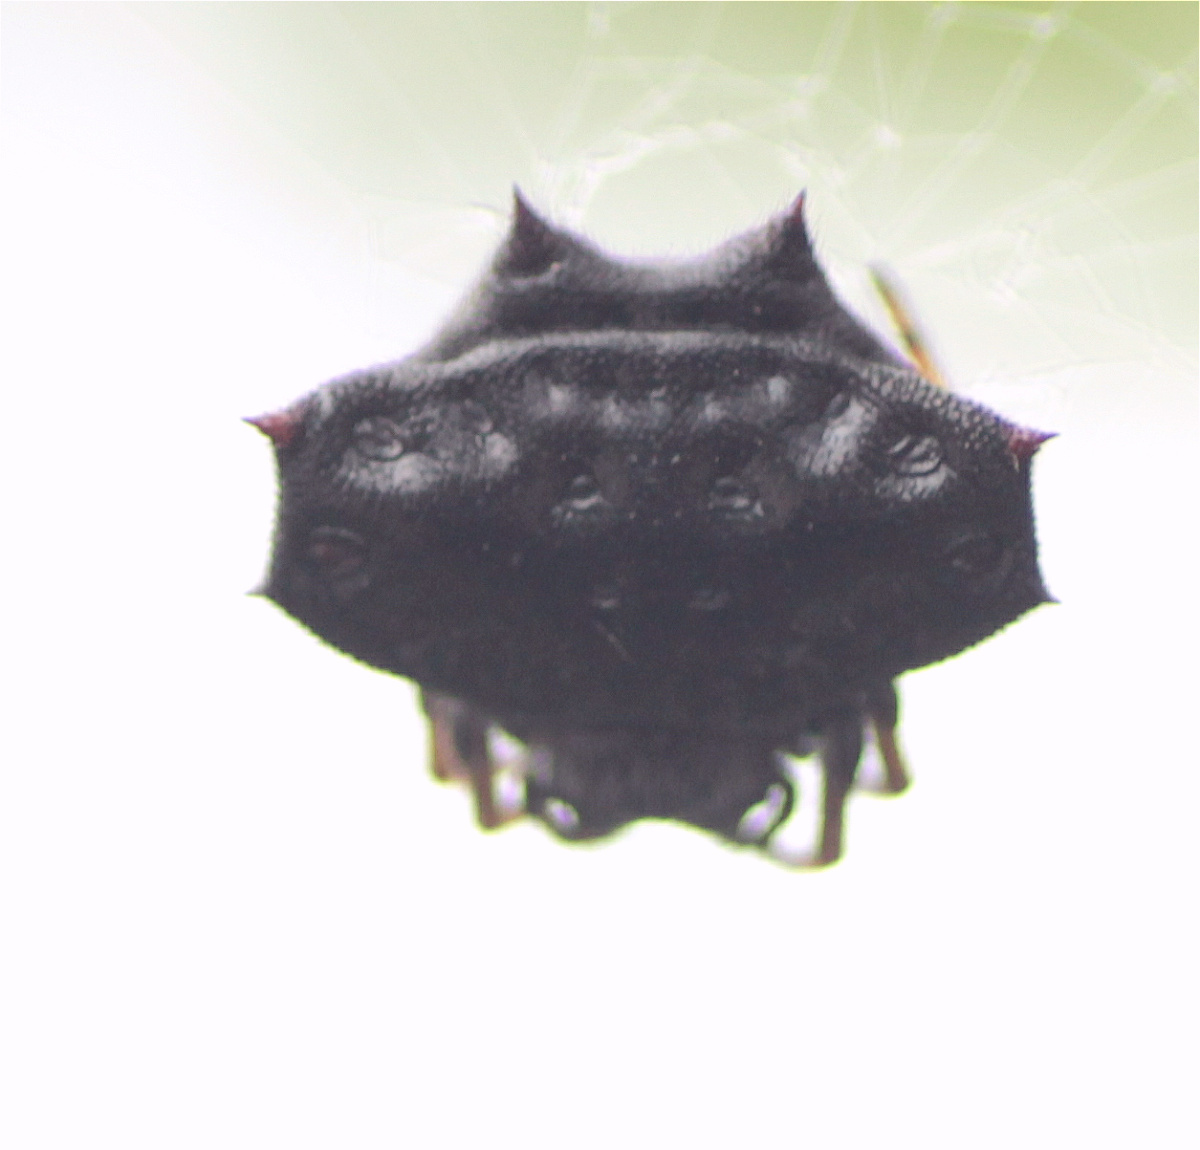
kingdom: Animalia
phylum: Arthropoda
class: Arachnida
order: Araneae
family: Araneidae
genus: Gasteracantha
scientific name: Gasteracantha cancriformis
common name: Orb weavers
